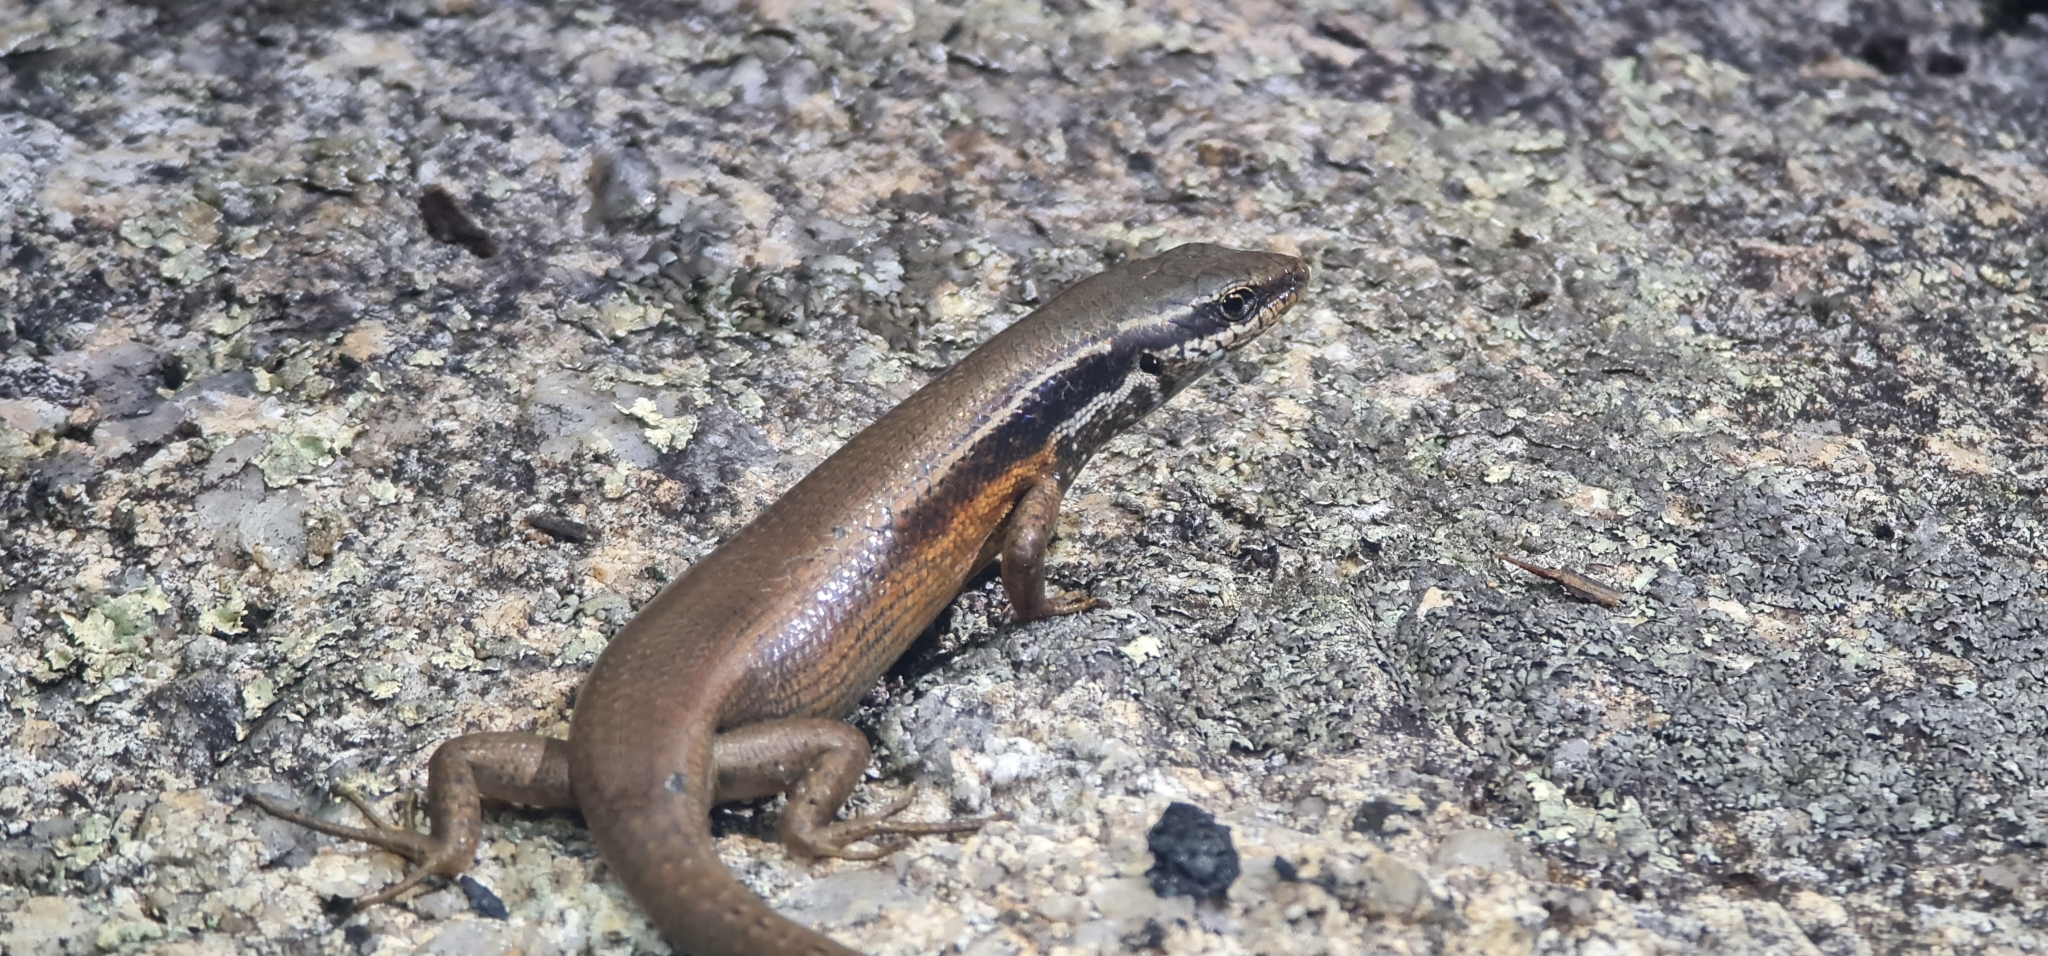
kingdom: Animalia
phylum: Chordata
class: Squamata
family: Scincidae
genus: Carlia
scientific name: Carlia rostralis
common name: Black-throated rainbow-skink
